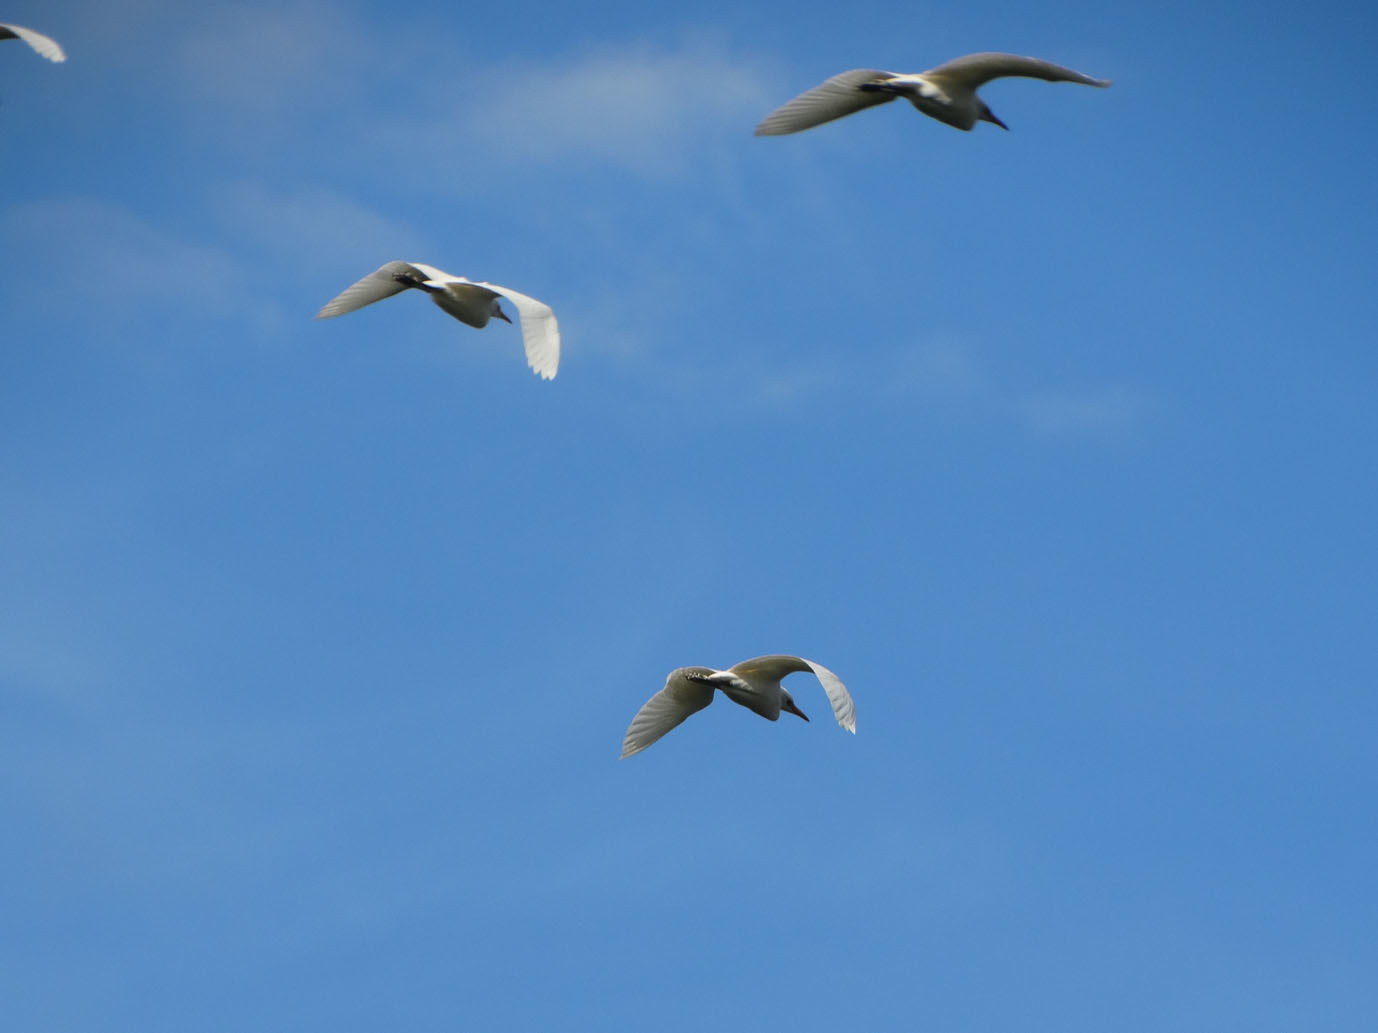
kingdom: Animalia
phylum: Chordata
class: Aves
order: Pelecaniformes
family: Ardeidae
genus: Bubulcus
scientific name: Bubulcus ibis
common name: Cattle egret
